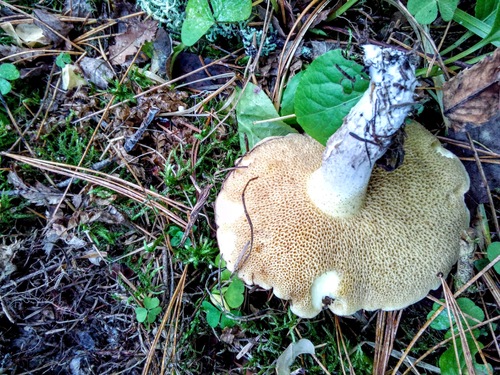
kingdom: Fungi
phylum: Basidiomycota
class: Agaricomycetes
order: Boletales
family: Suillaceae
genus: Suillus
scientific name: Suillus placidus
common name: Slippery white bolete
